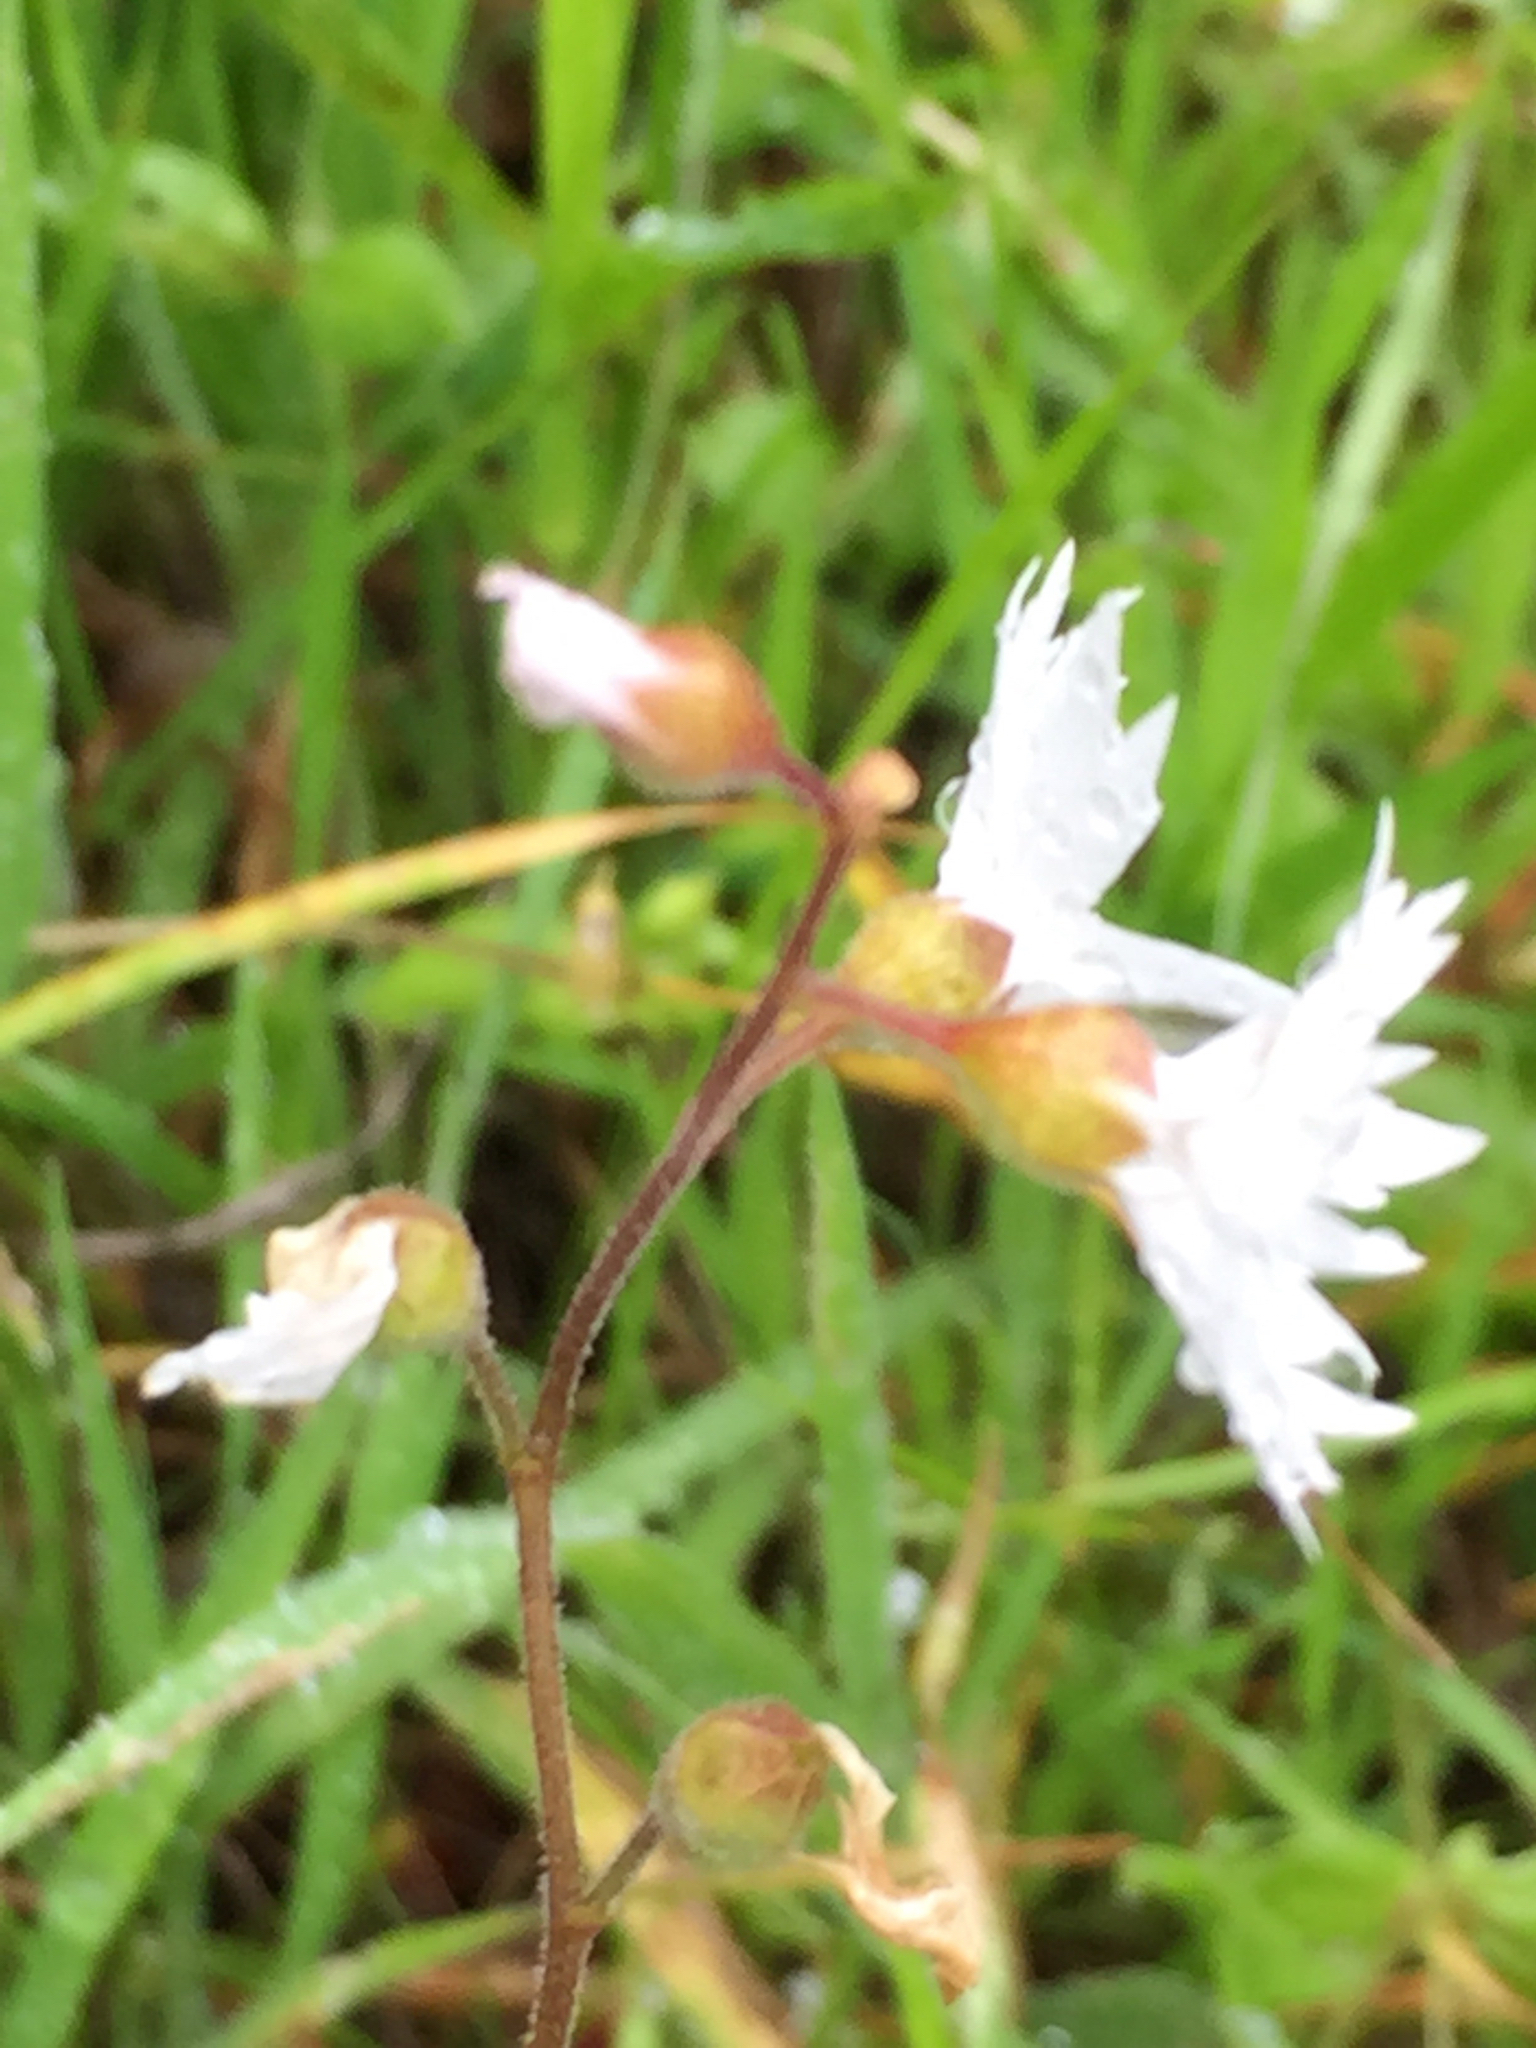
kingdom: Plantae
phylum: Tracheophyta
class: Magnoliopsida
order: Saxifragales
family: Saxifragaceae
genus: Lithophragma
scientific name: Lithophragma affine
